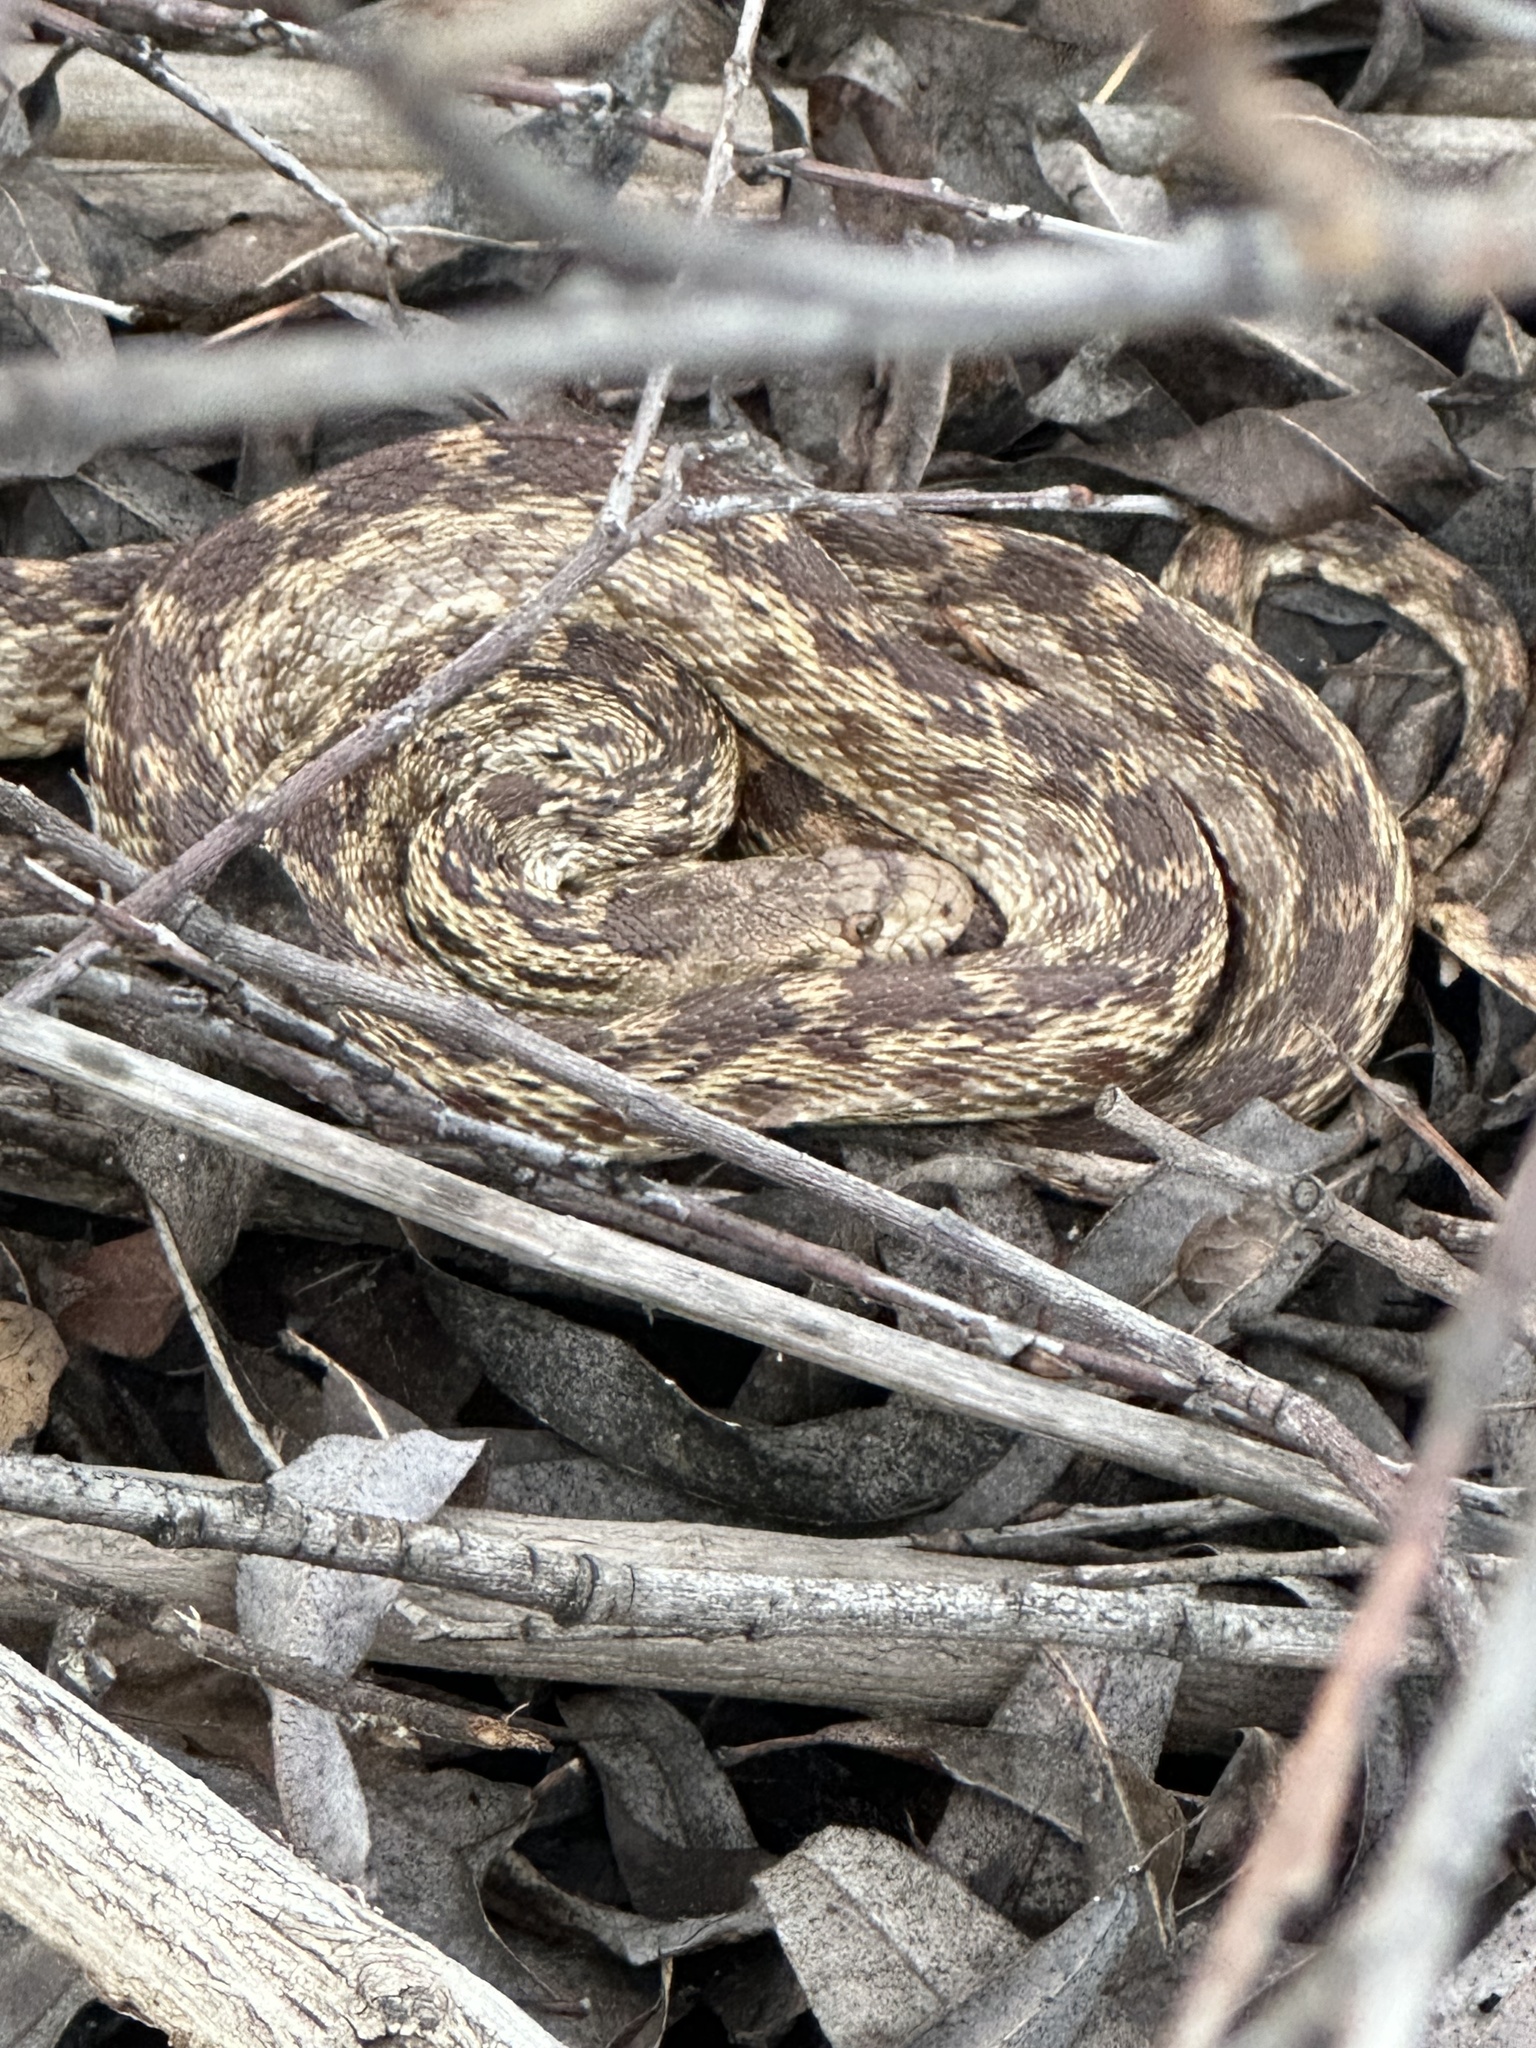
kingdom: Animalia
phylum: Chordata
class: Squamata
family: Colubridae
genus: Pituophis
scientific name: Pituophis catenifer
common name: Gopher snake
